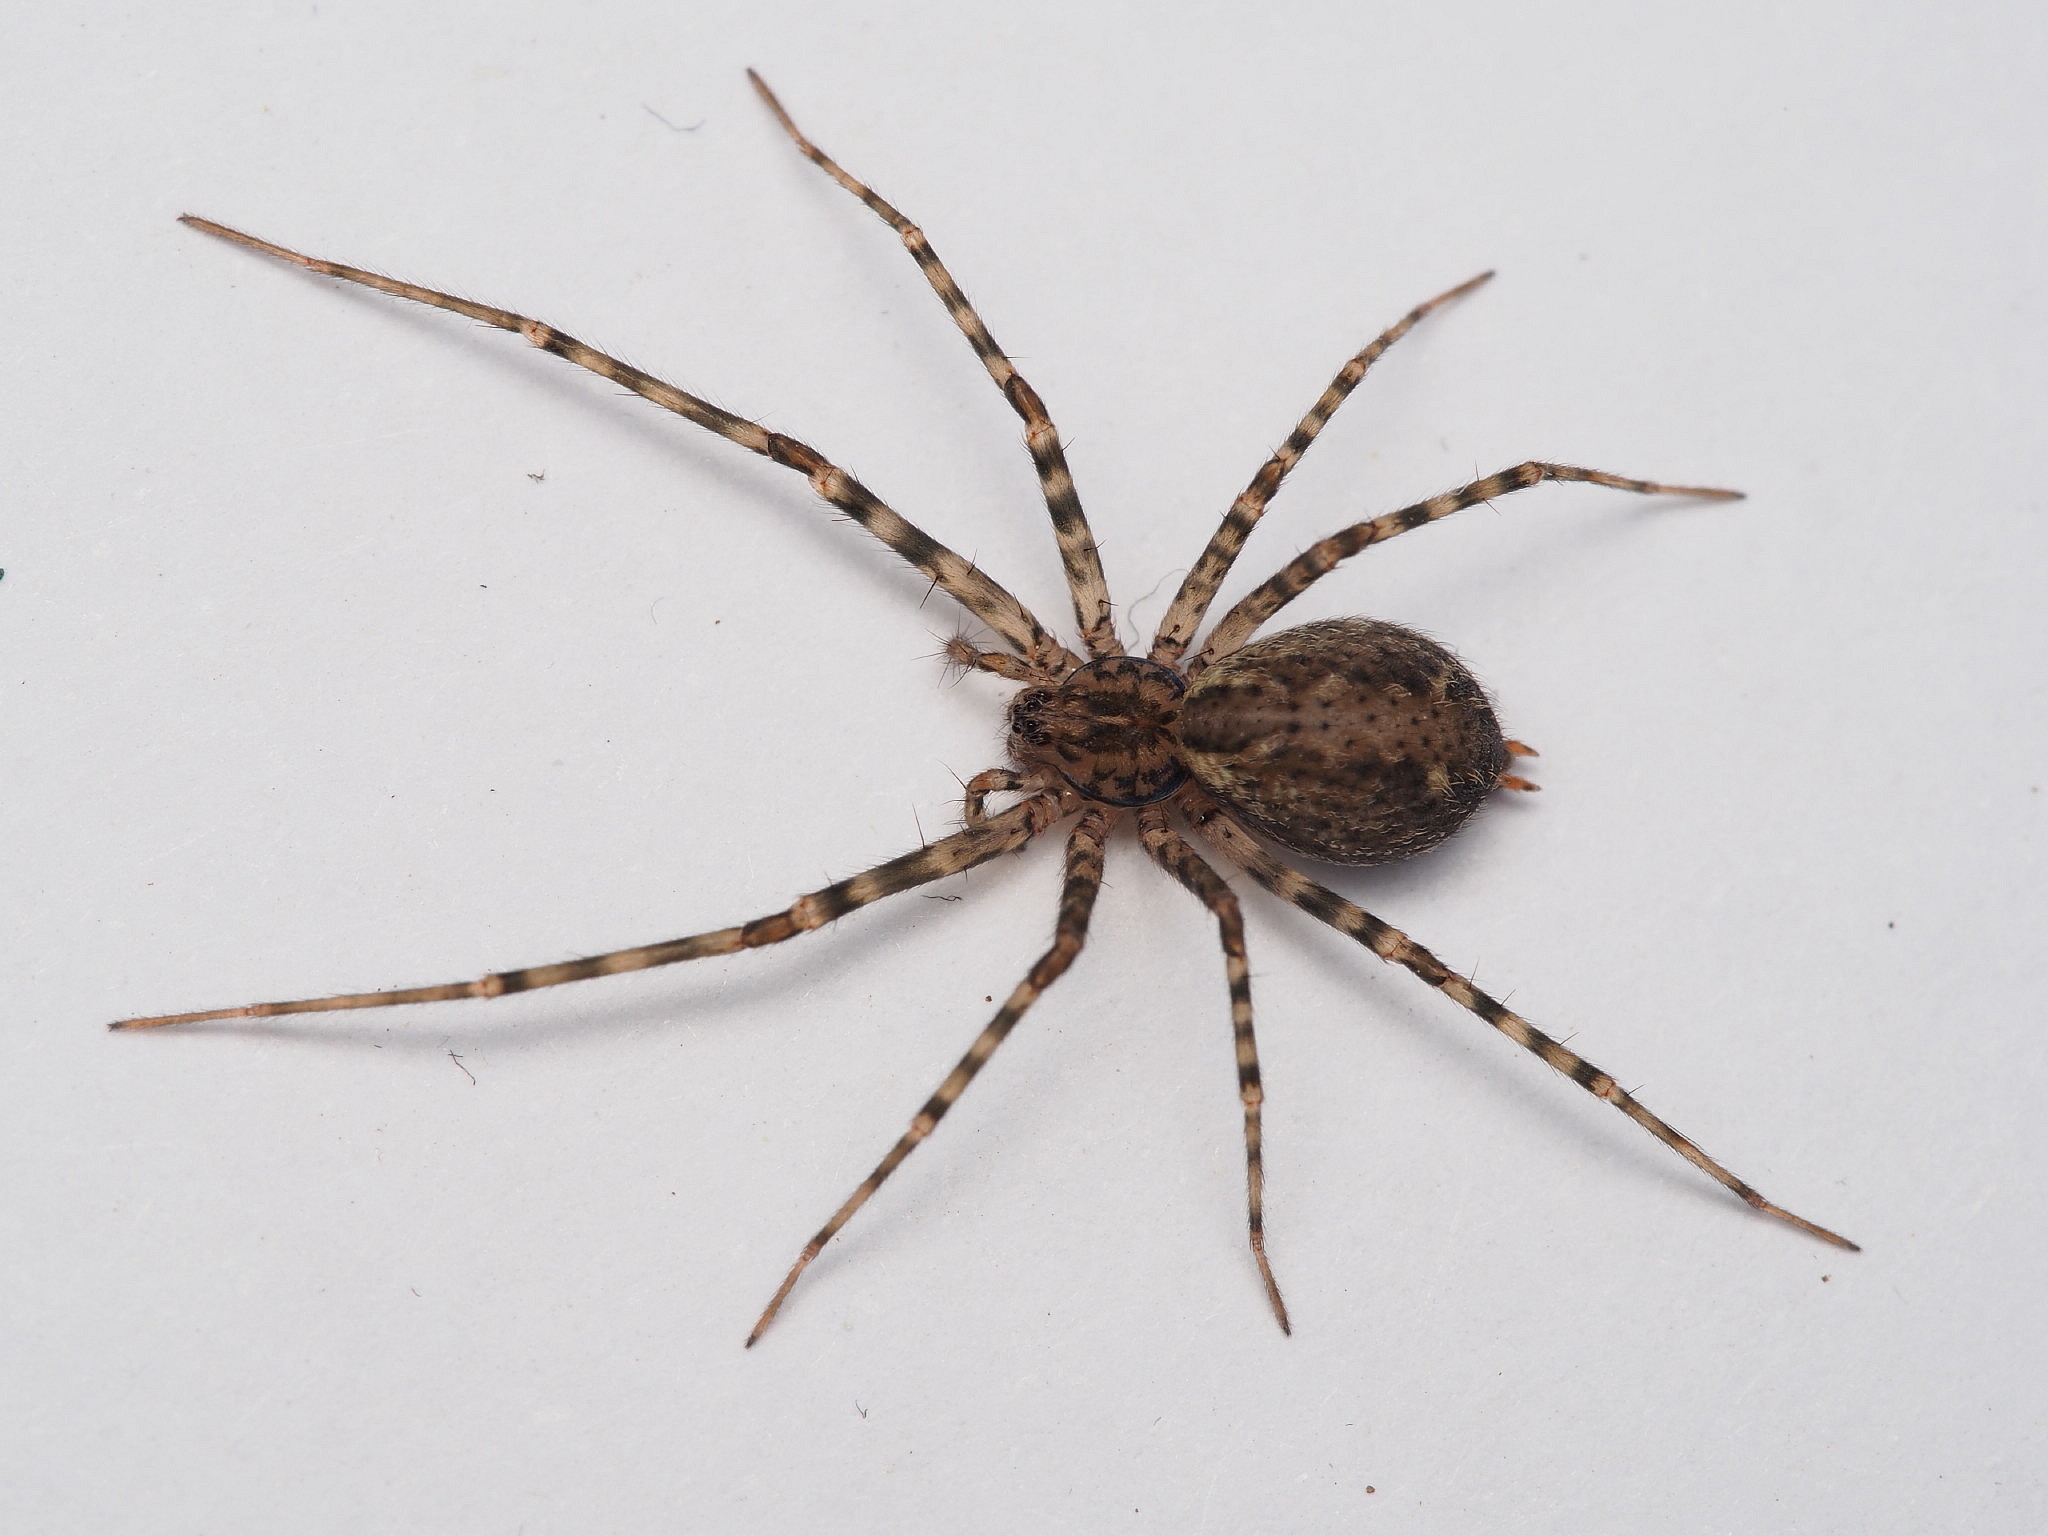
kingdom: Animalia
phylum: Arthropoda
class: Arachnida
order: Araneae
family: Stiphidiidae
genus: Stiphidion
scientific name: Stiphidion facetum
